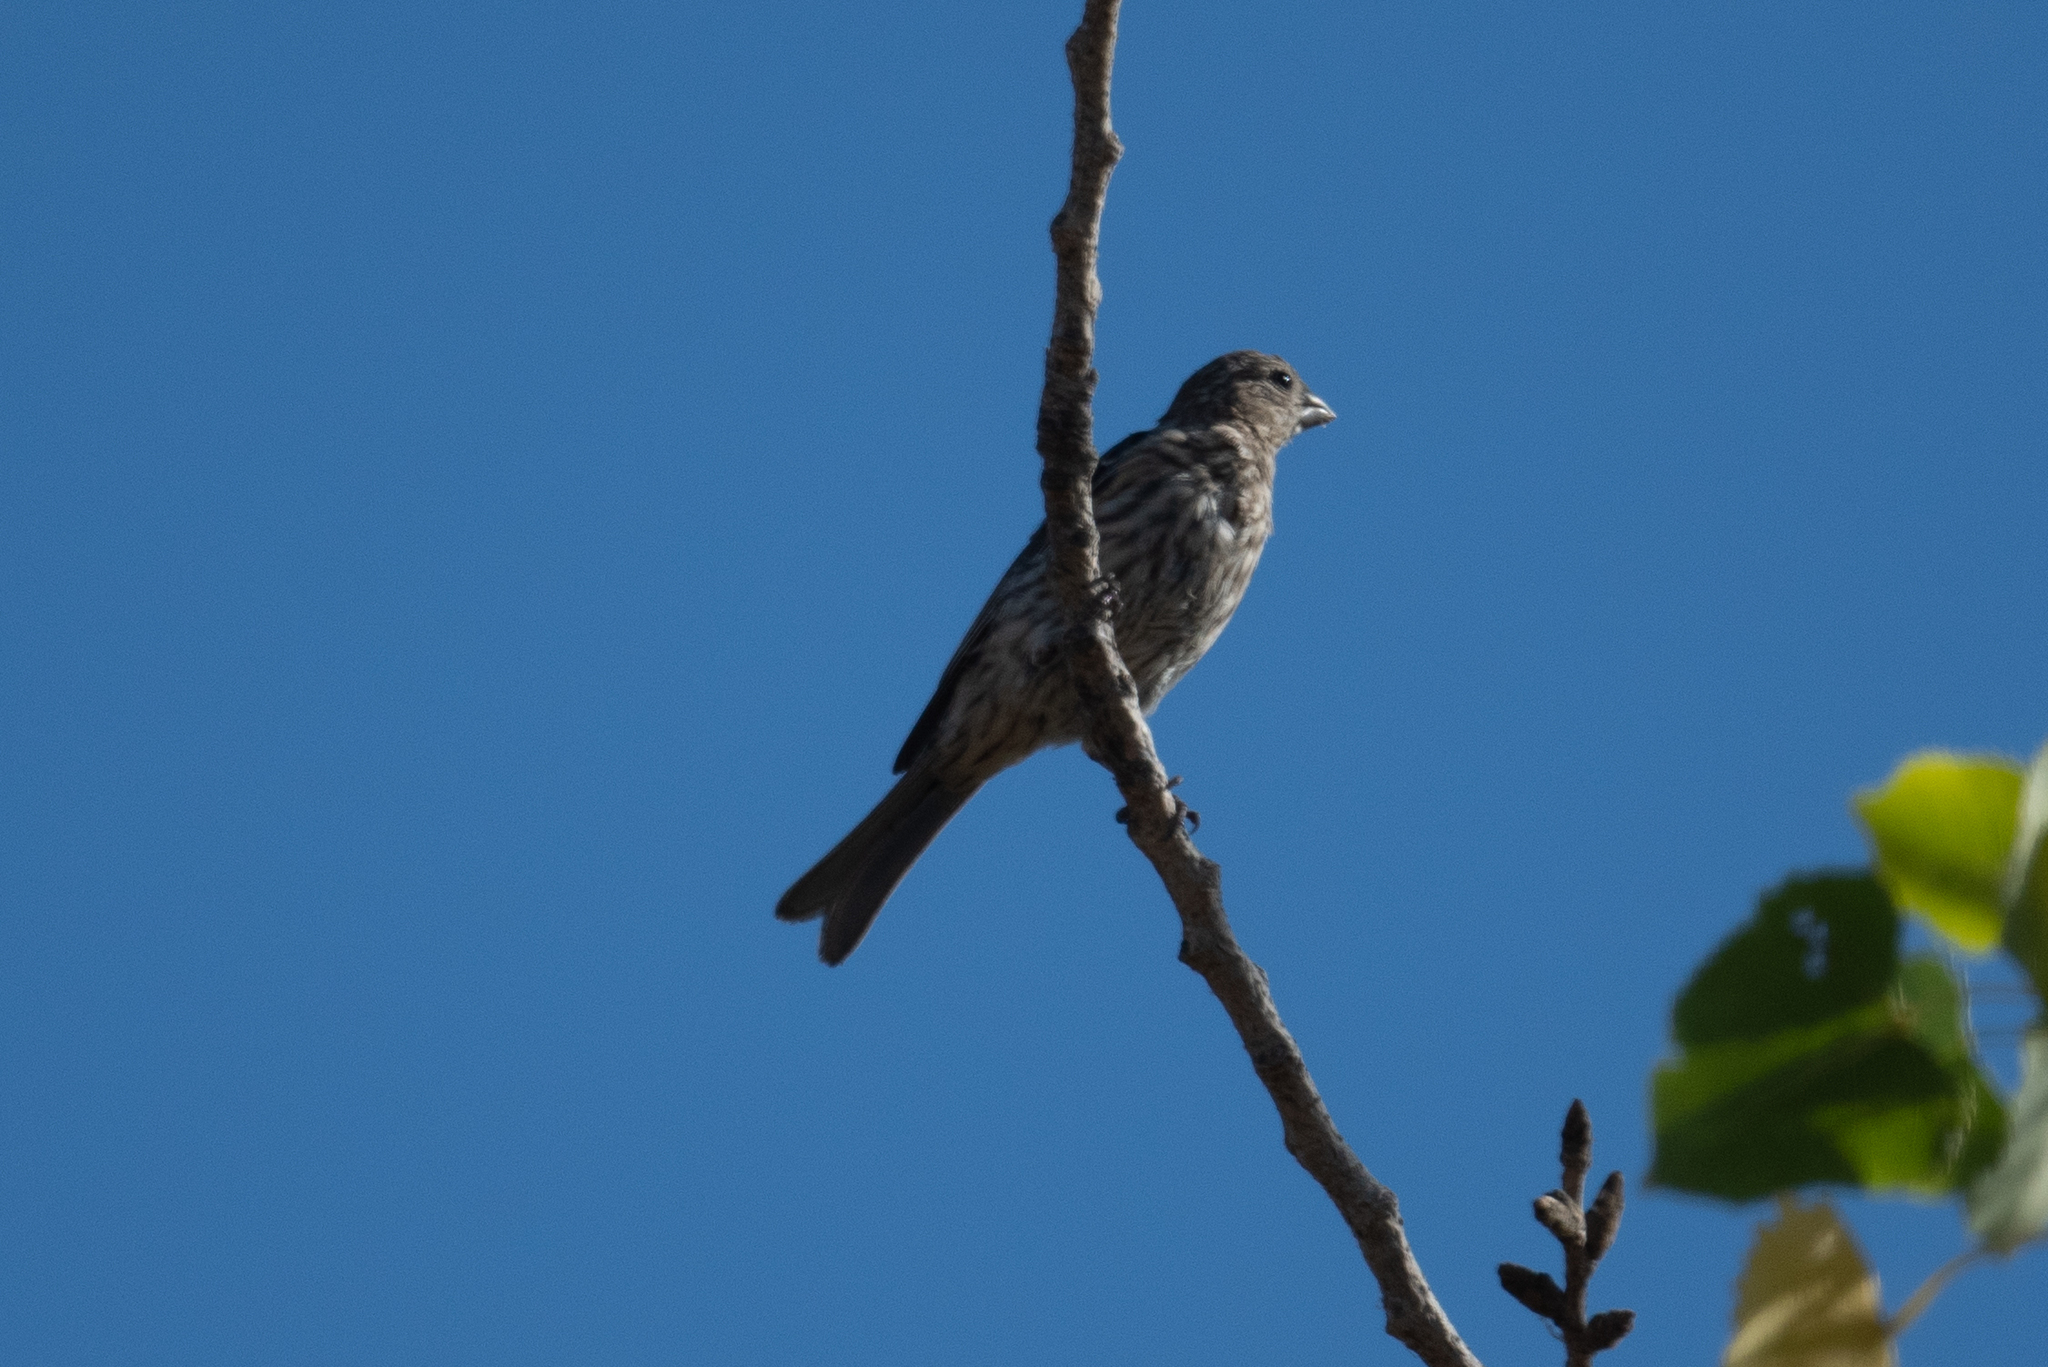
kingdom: Animalia
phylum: Chordata
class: Aves
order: Passeriformes
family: Fringillidae
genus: Haemorhous
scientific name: Haemorhous mexicanus
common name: House finch
